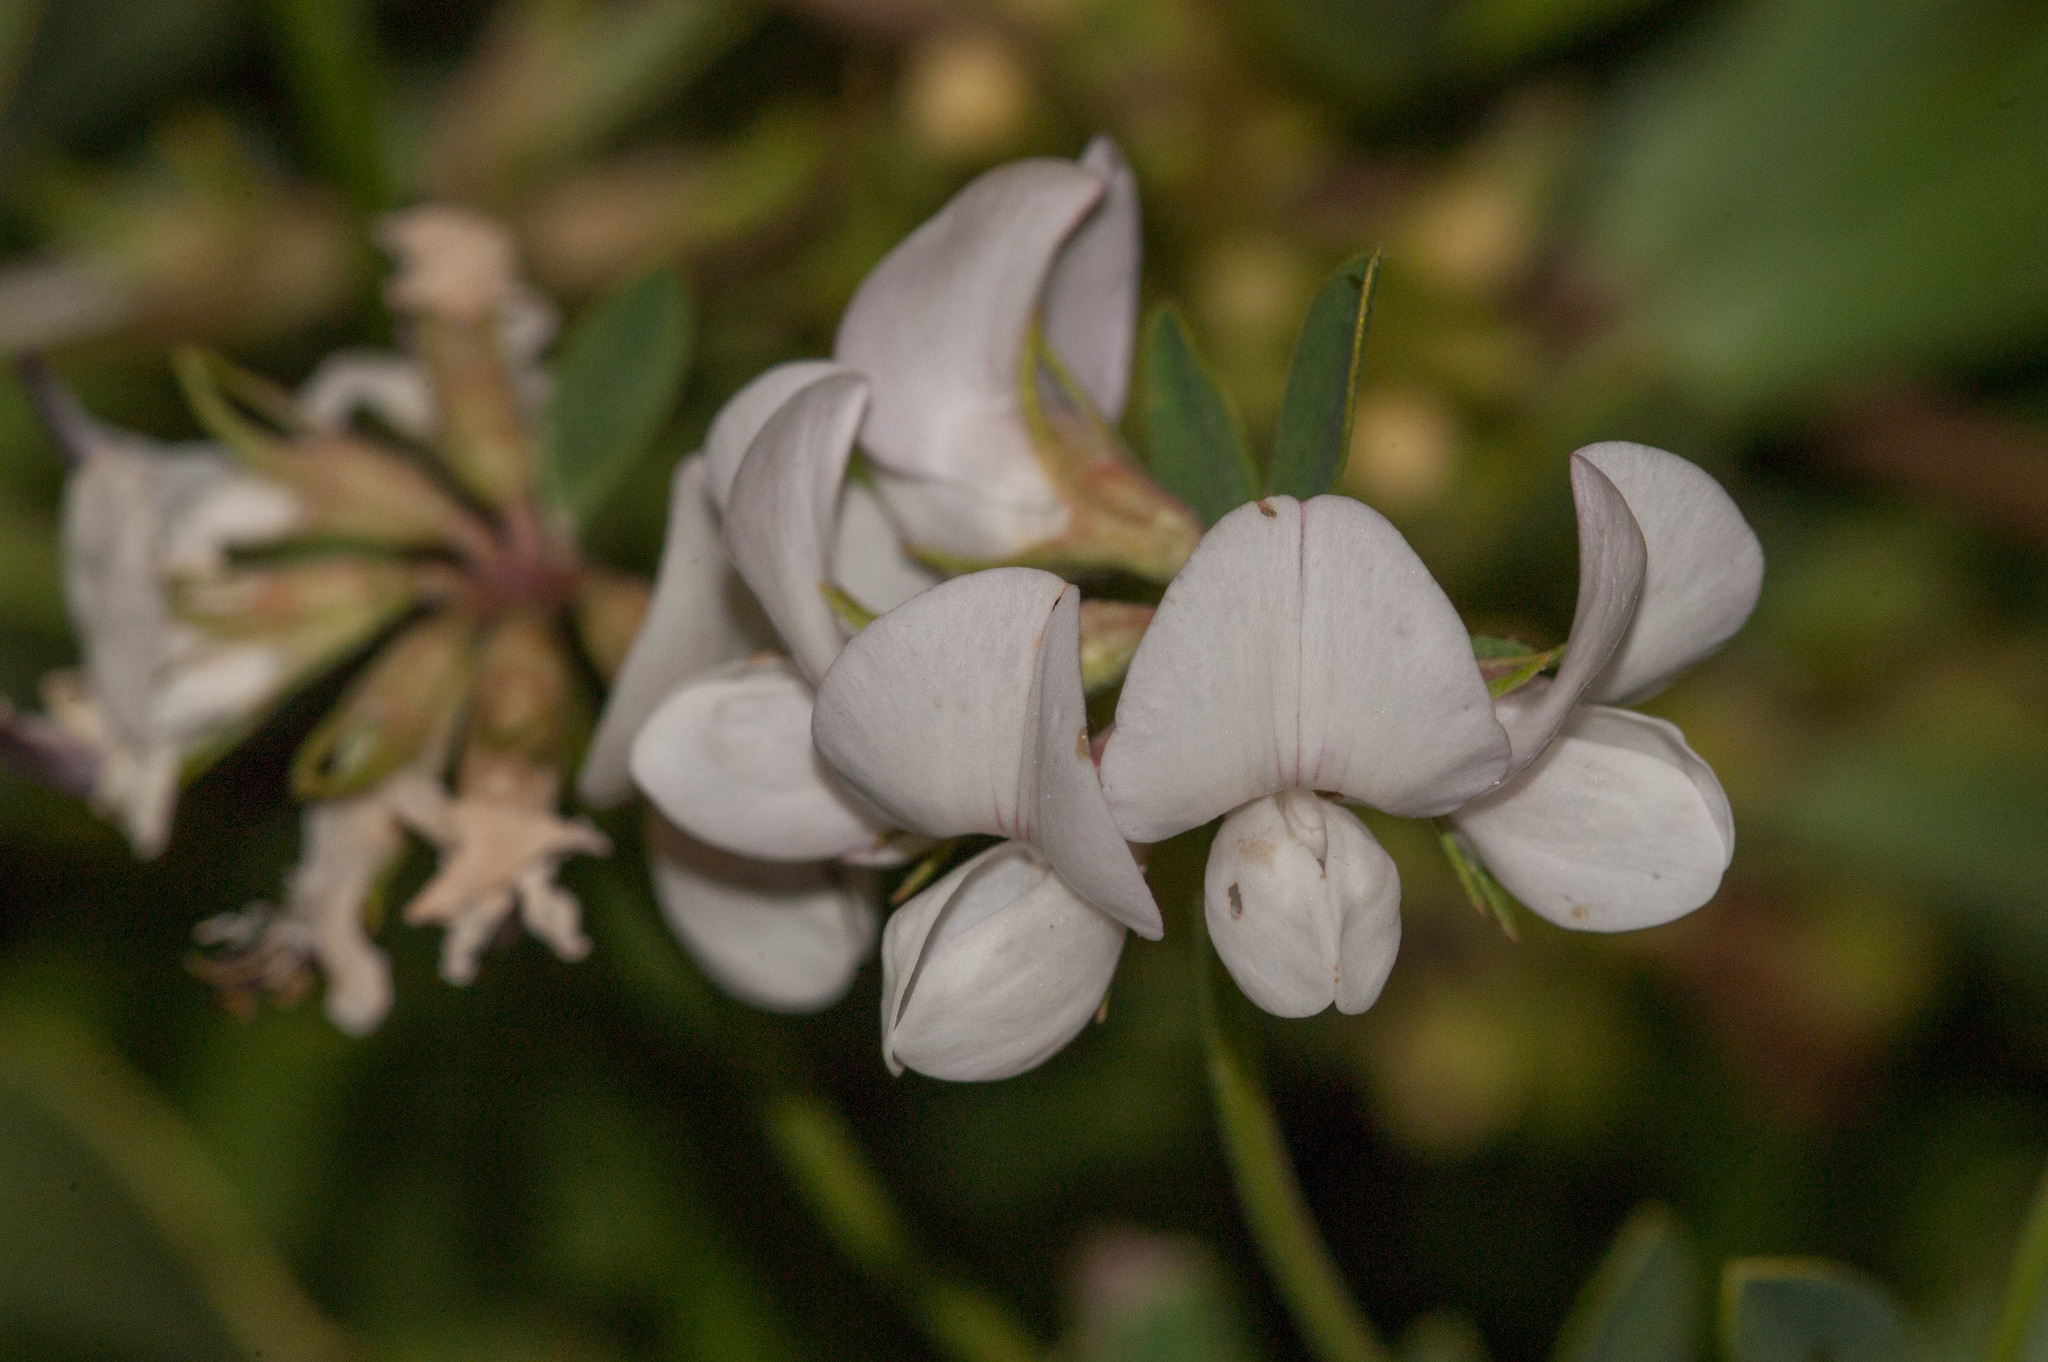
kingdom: Plantae
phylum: Tracheophyta
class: Magnoliopsida
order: Fabales
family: Fabaceae
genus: Lotus
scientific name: Lotus australis
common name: Australian trefoil
